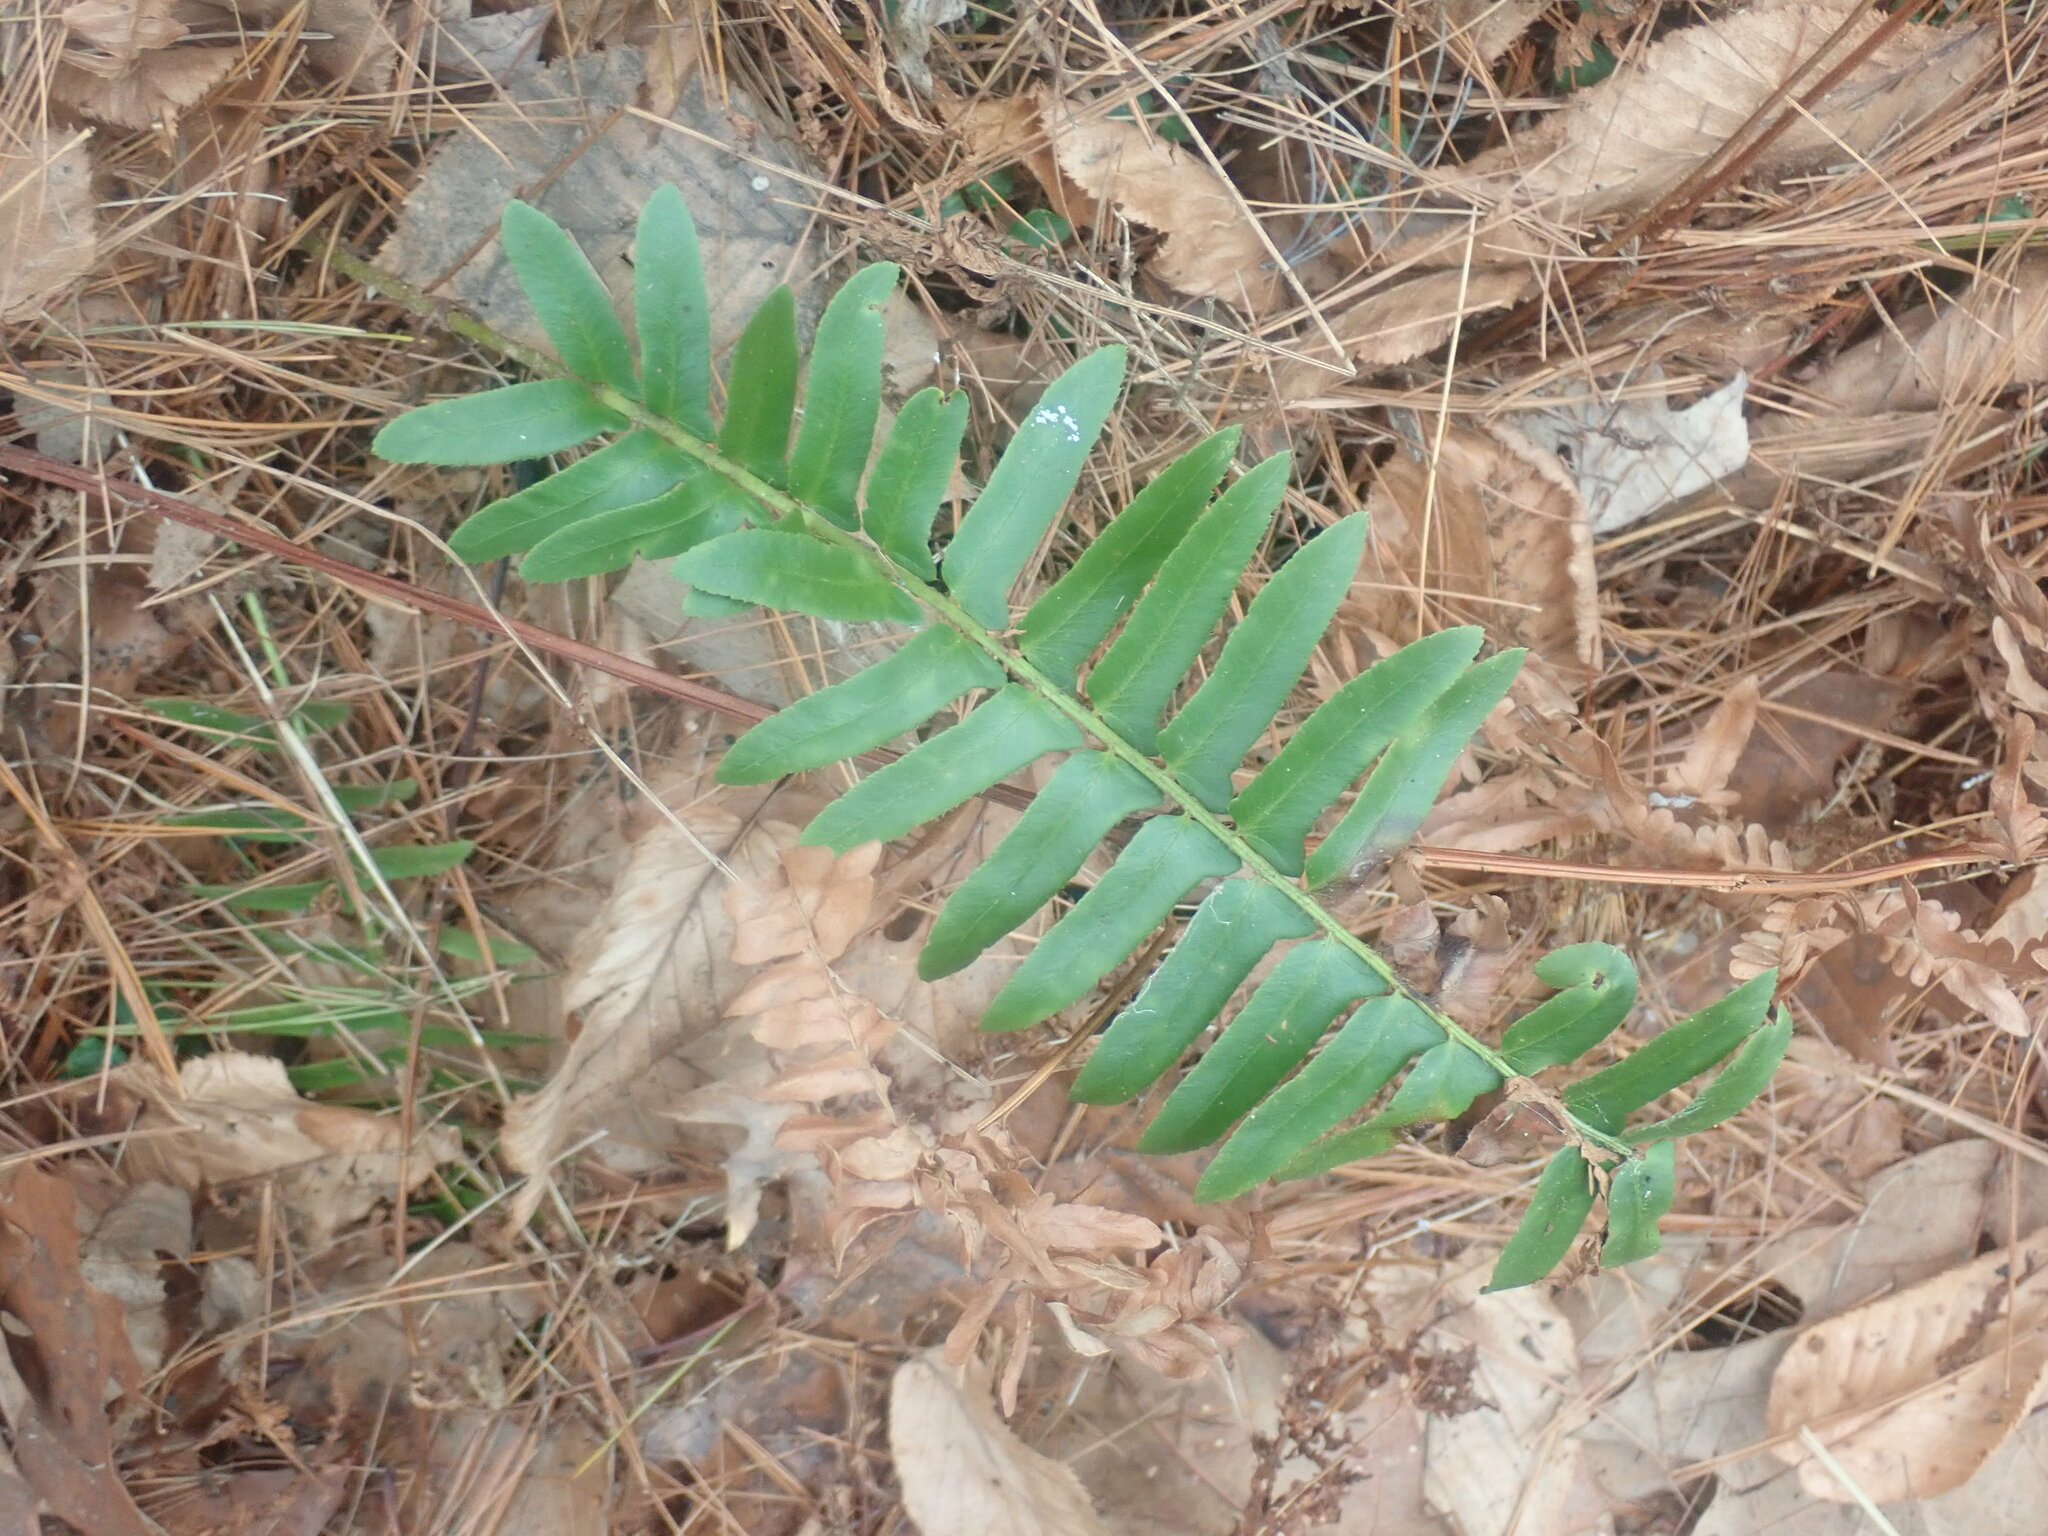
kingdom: Plantae
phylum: Tracheophyta
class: Polypodiopsida
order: Polypodiales
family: Dryopteridaceae
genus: Polystichum
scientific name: Polystichum acrostichoides
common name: Christmas fern
